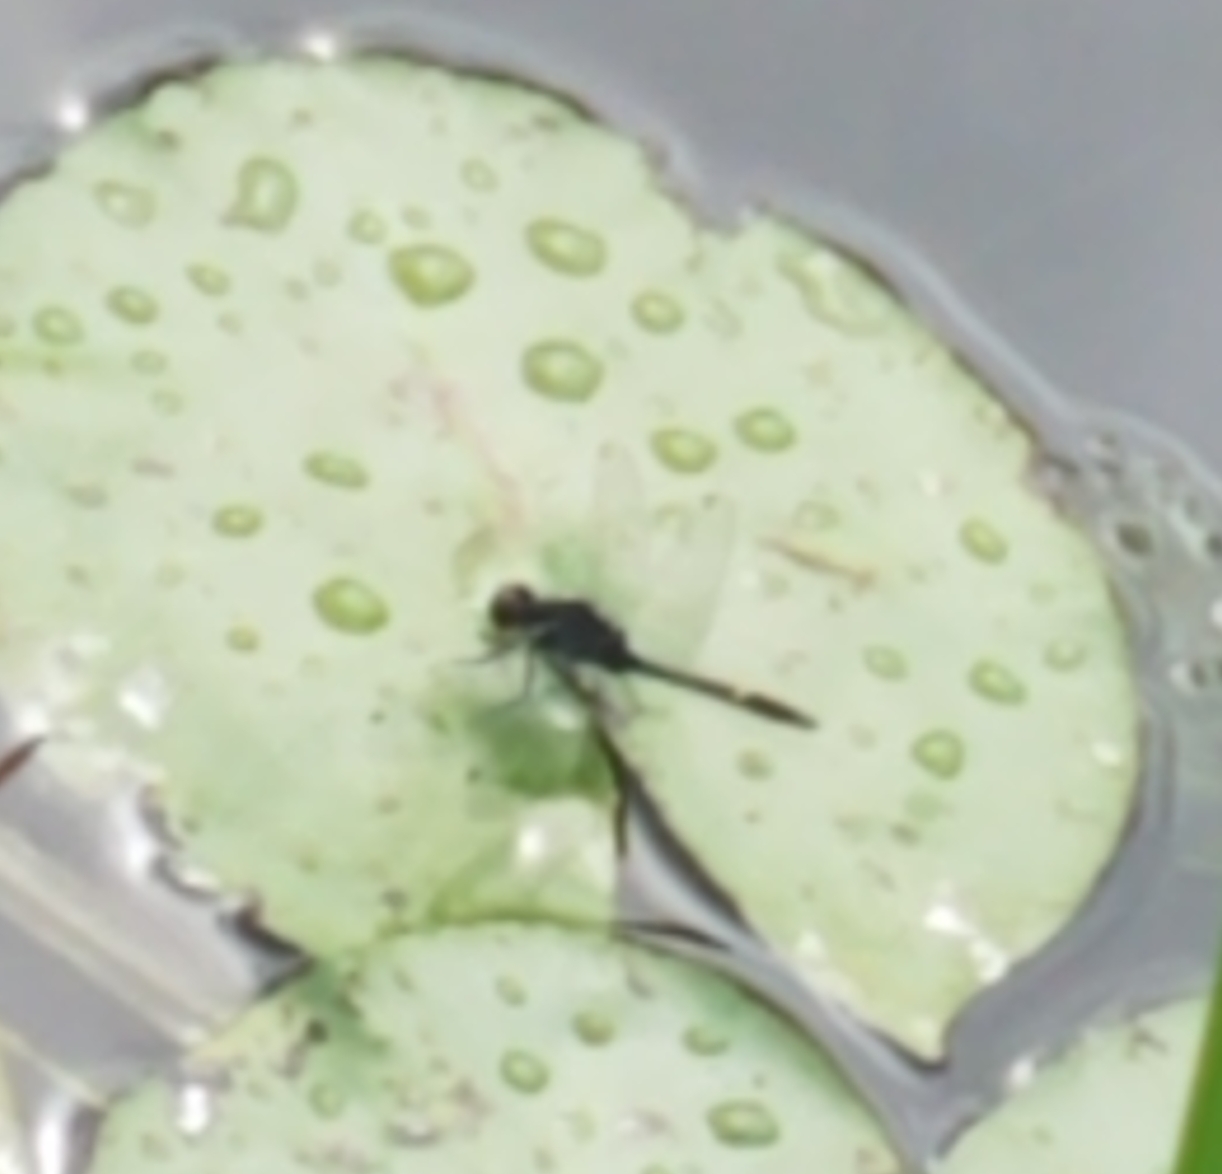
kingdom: Animalia
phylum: Arthropoda
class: Insecta
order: Odonata
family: Libellulidae
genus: Leucorrhinia
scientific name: Leucorrhinia intacta
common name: Dot-tailed whiteface
